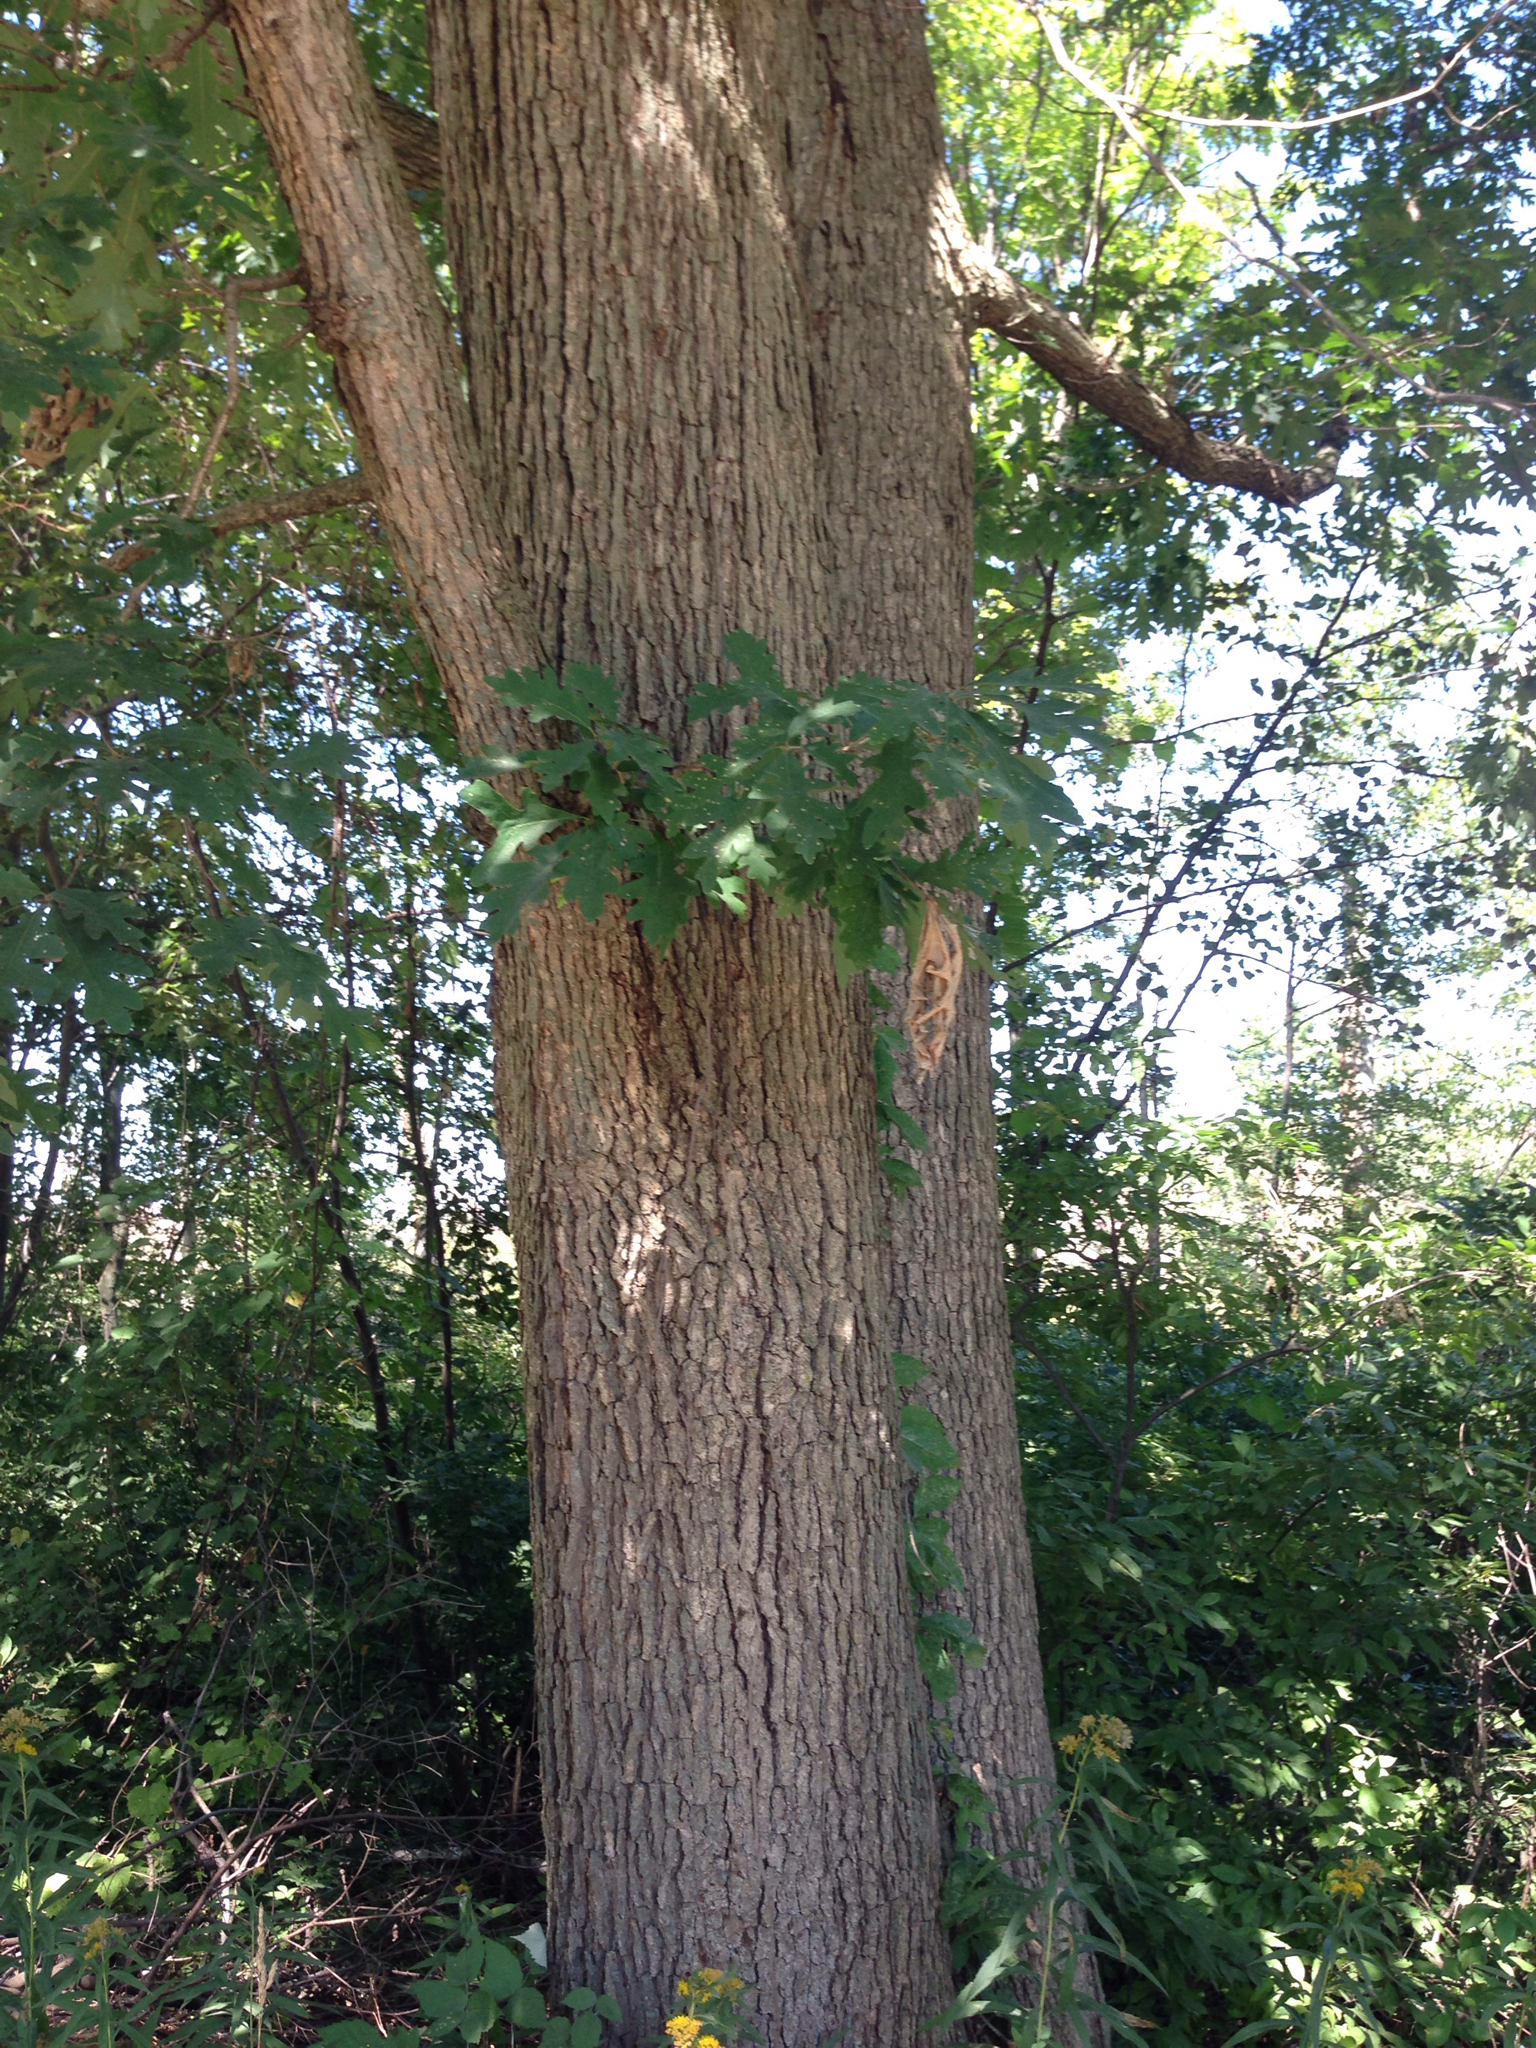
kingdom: Plantae
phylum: Tracheophyta
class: Magnoliopsida
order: Fagales
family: Fagaceae
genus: Quercus
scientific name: Quercus alba
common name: White oak
